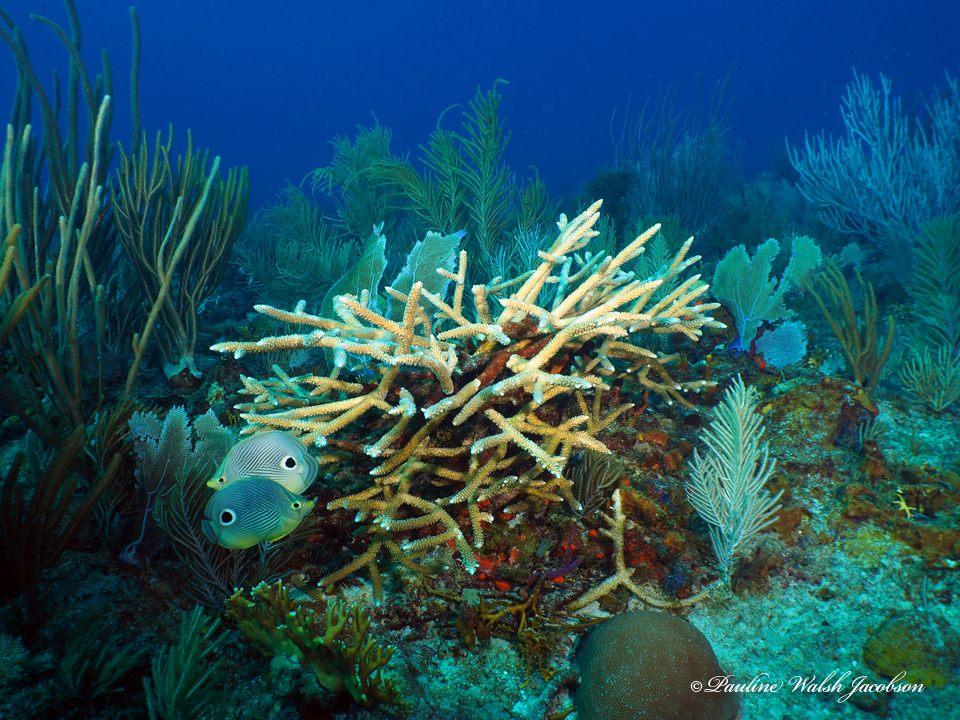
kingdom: Animalia
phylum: Chordata
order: Perciformes
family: Chaetodontidae
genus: Chaetodon
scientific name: Chaetodon capistratus
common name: Kete
